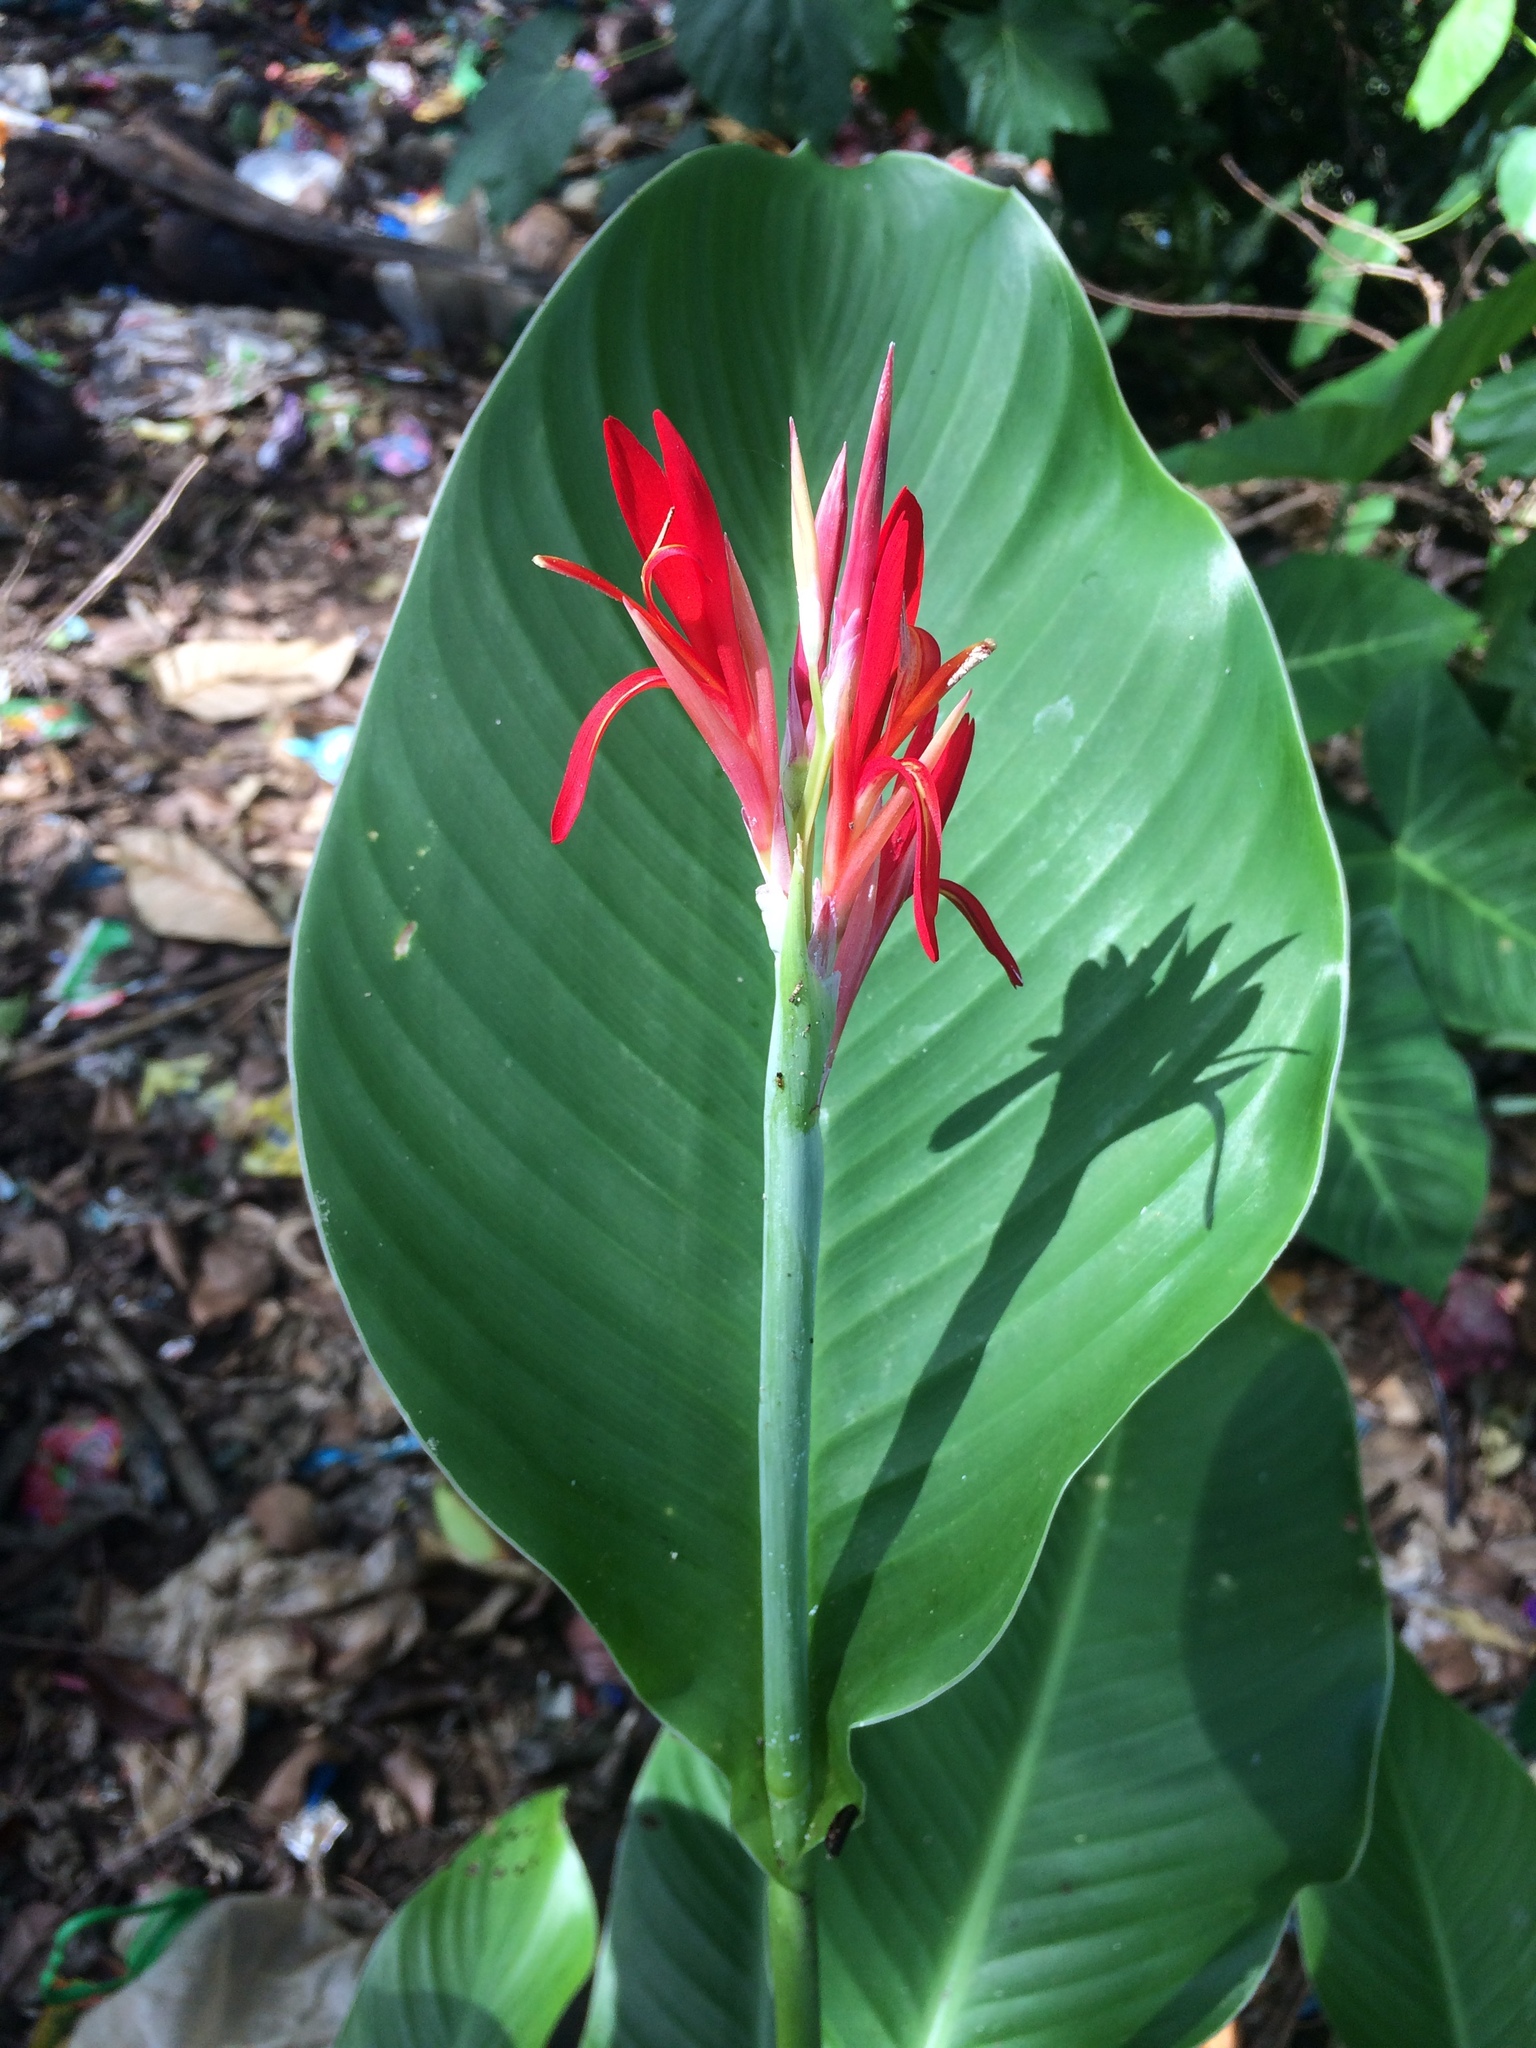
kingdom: Plantae
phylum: Tracheophyta
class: Liliopsida
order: Zingiberales
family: Cannaceae
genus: Canna
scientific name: Canna indica
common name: Indian shot
